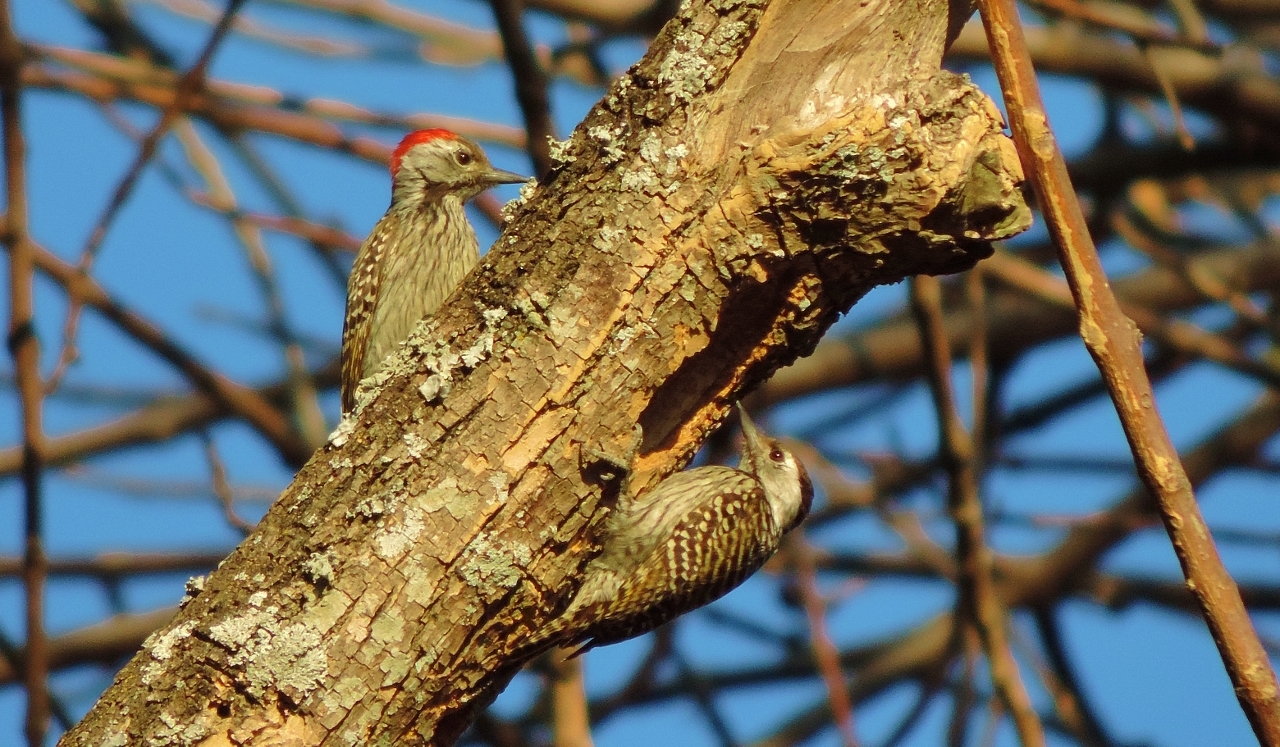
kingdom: Animalia
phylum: Chordata
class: Aves
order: Piciformes
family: Picidae
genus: Dendropicos
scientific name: Dendropicos fuscescens
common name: Cardinal woodpecker
